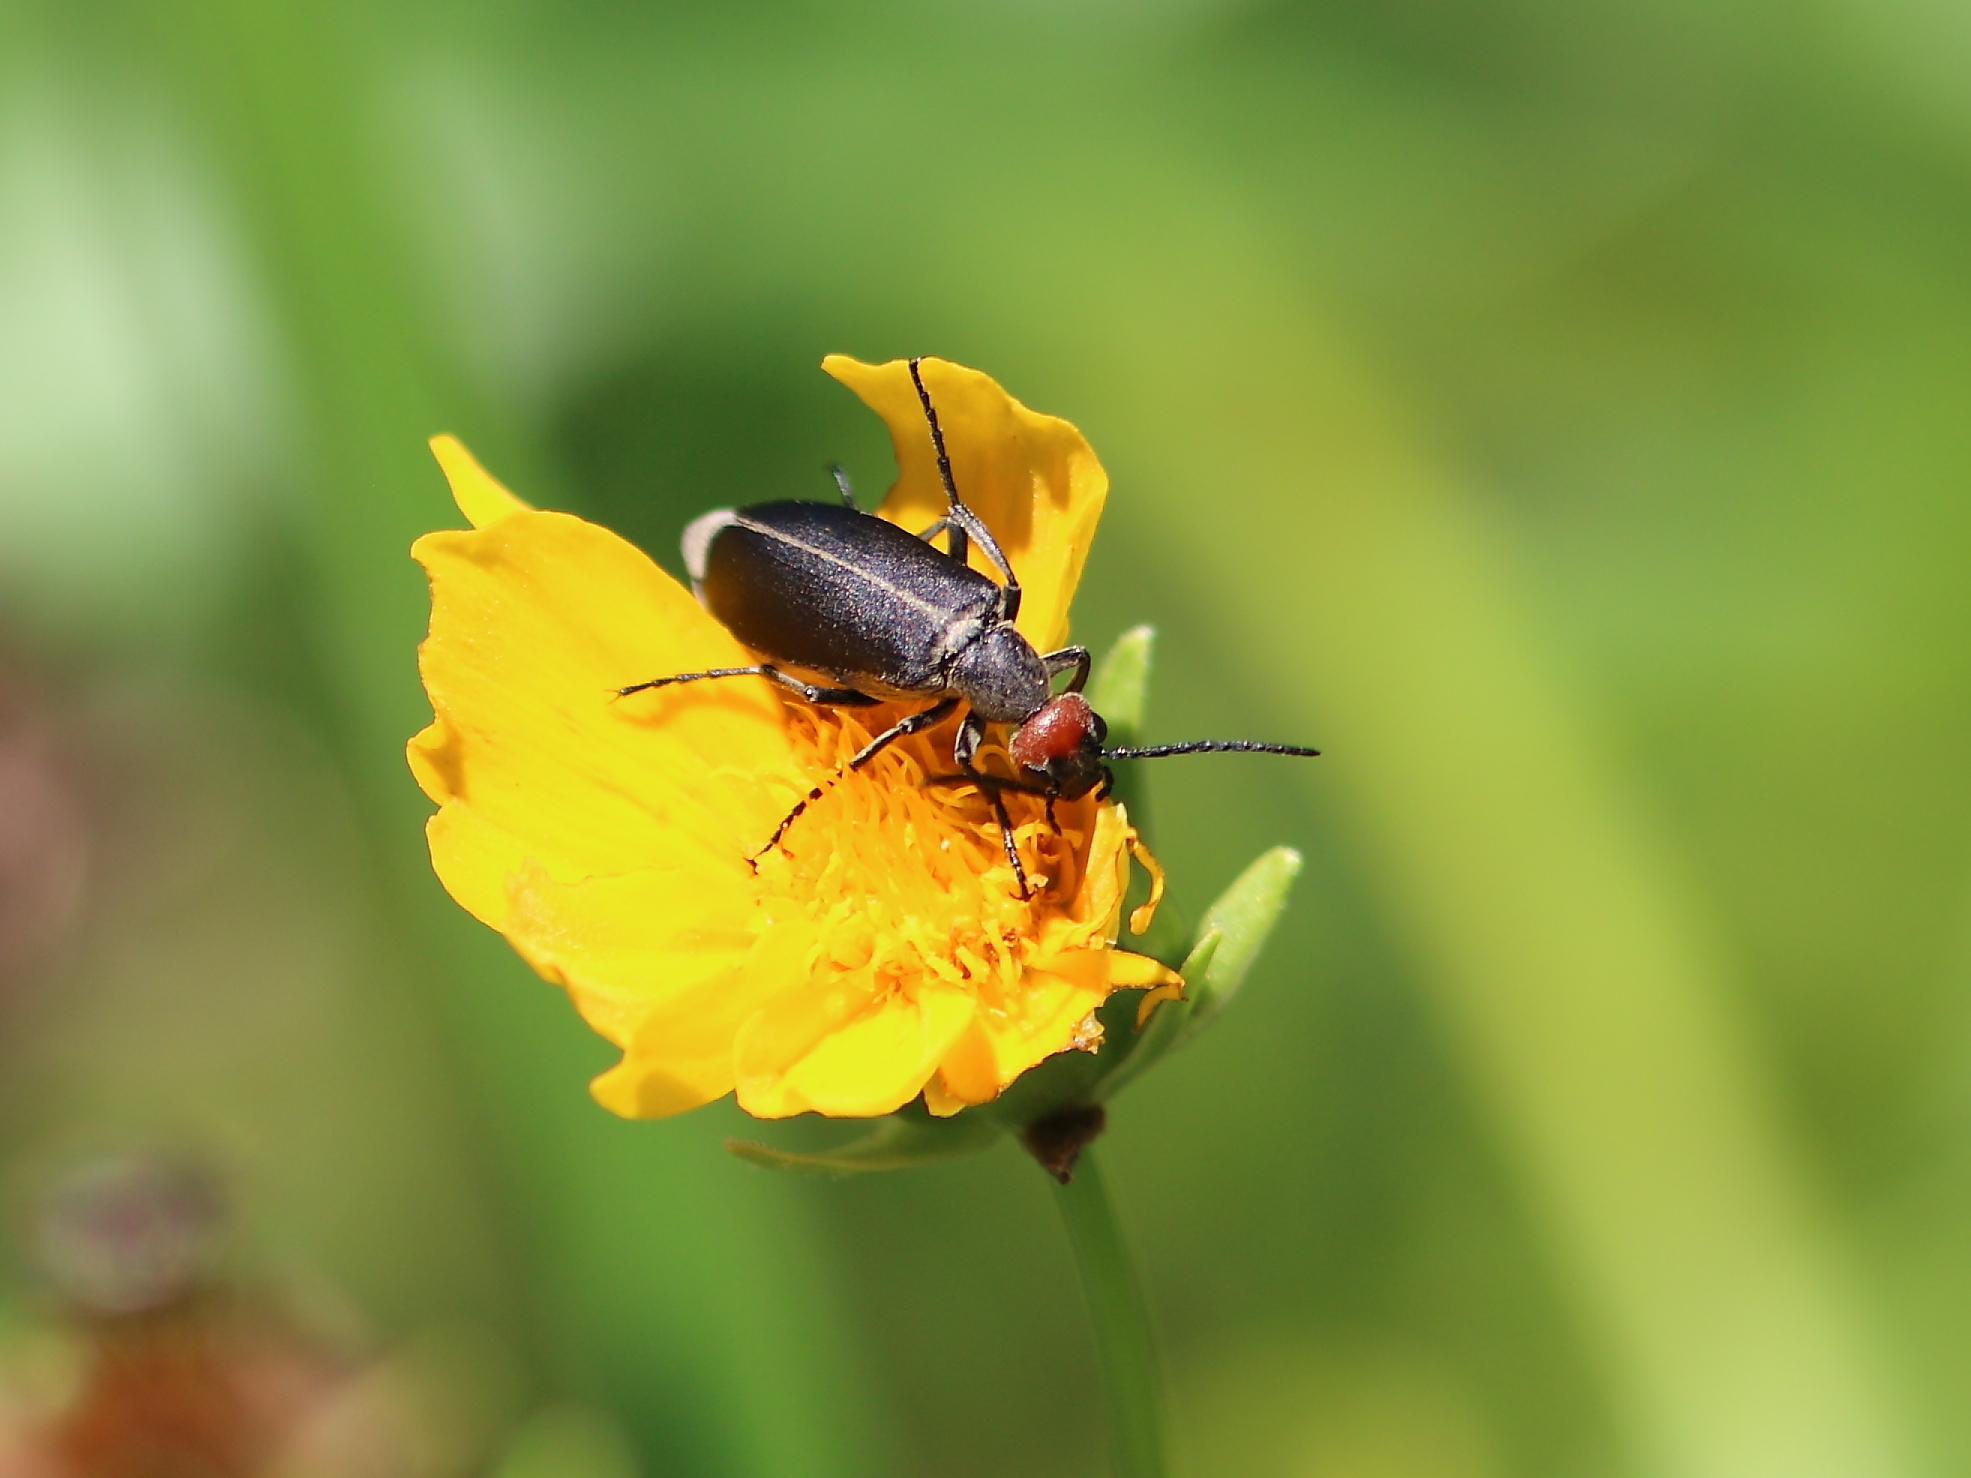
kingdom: Animalia
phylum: Arthropoda
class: Insecta
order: Coleoptera
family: Meloidae
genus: Epicauta
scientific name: Epicauta atrata
